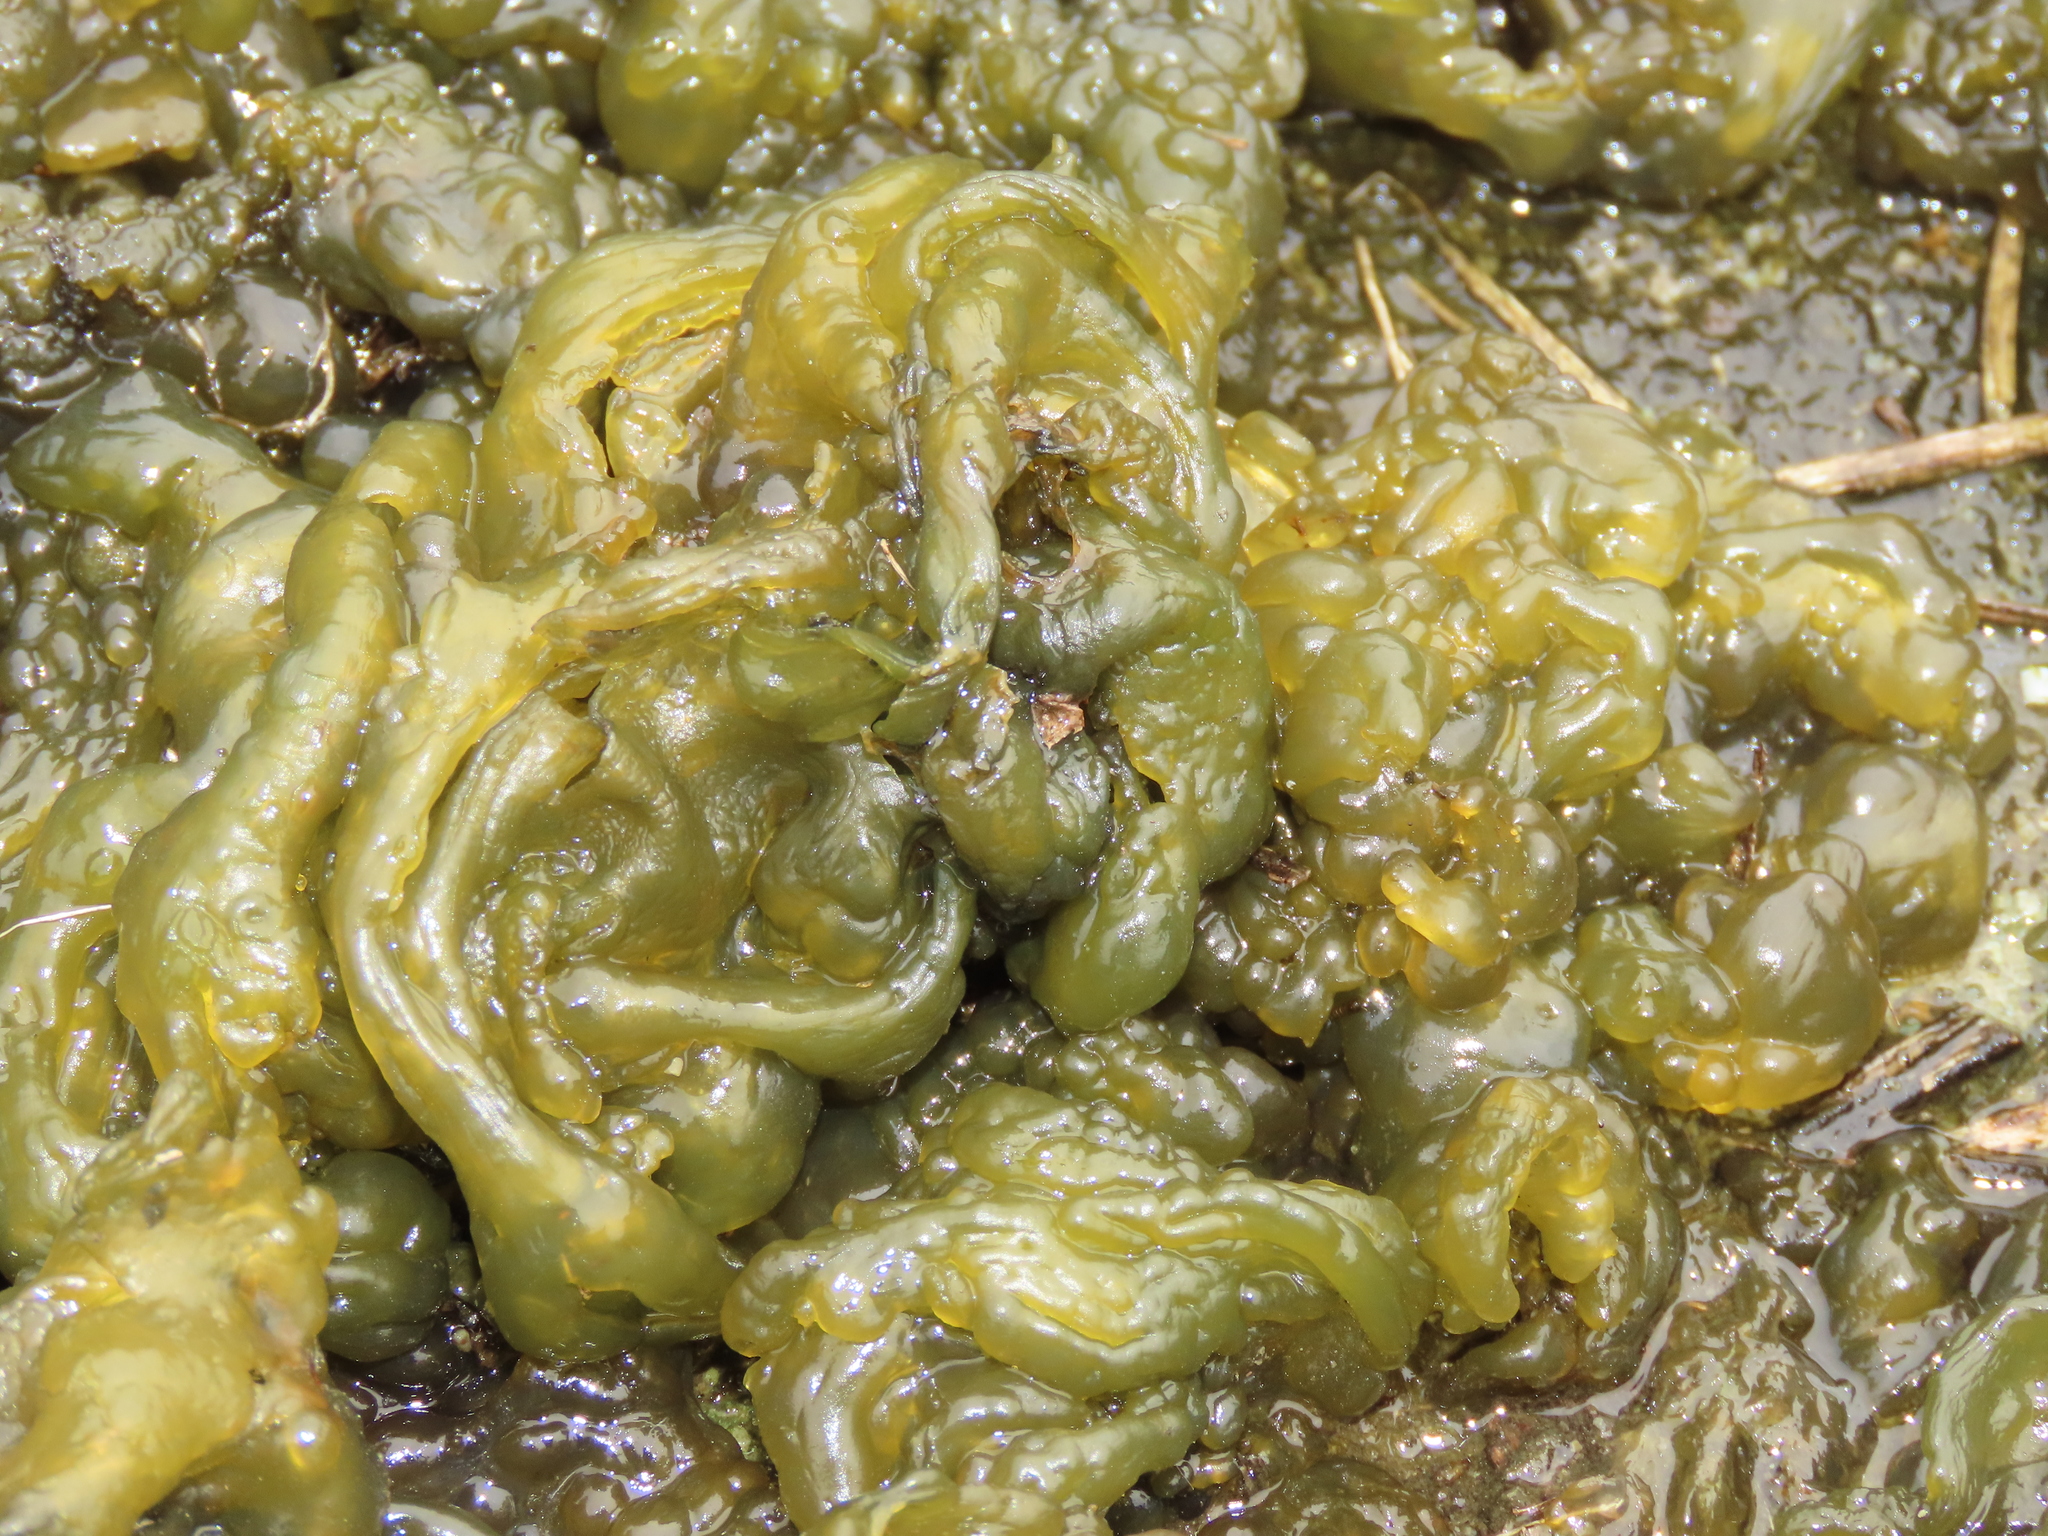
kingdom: Bacteria
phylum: Cyanobacteria
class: Cyanobacteriia
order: Cyanobacteriales
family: Nostocaceae
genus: Nostoc
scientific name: Nostoc commune
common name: Star jelly
